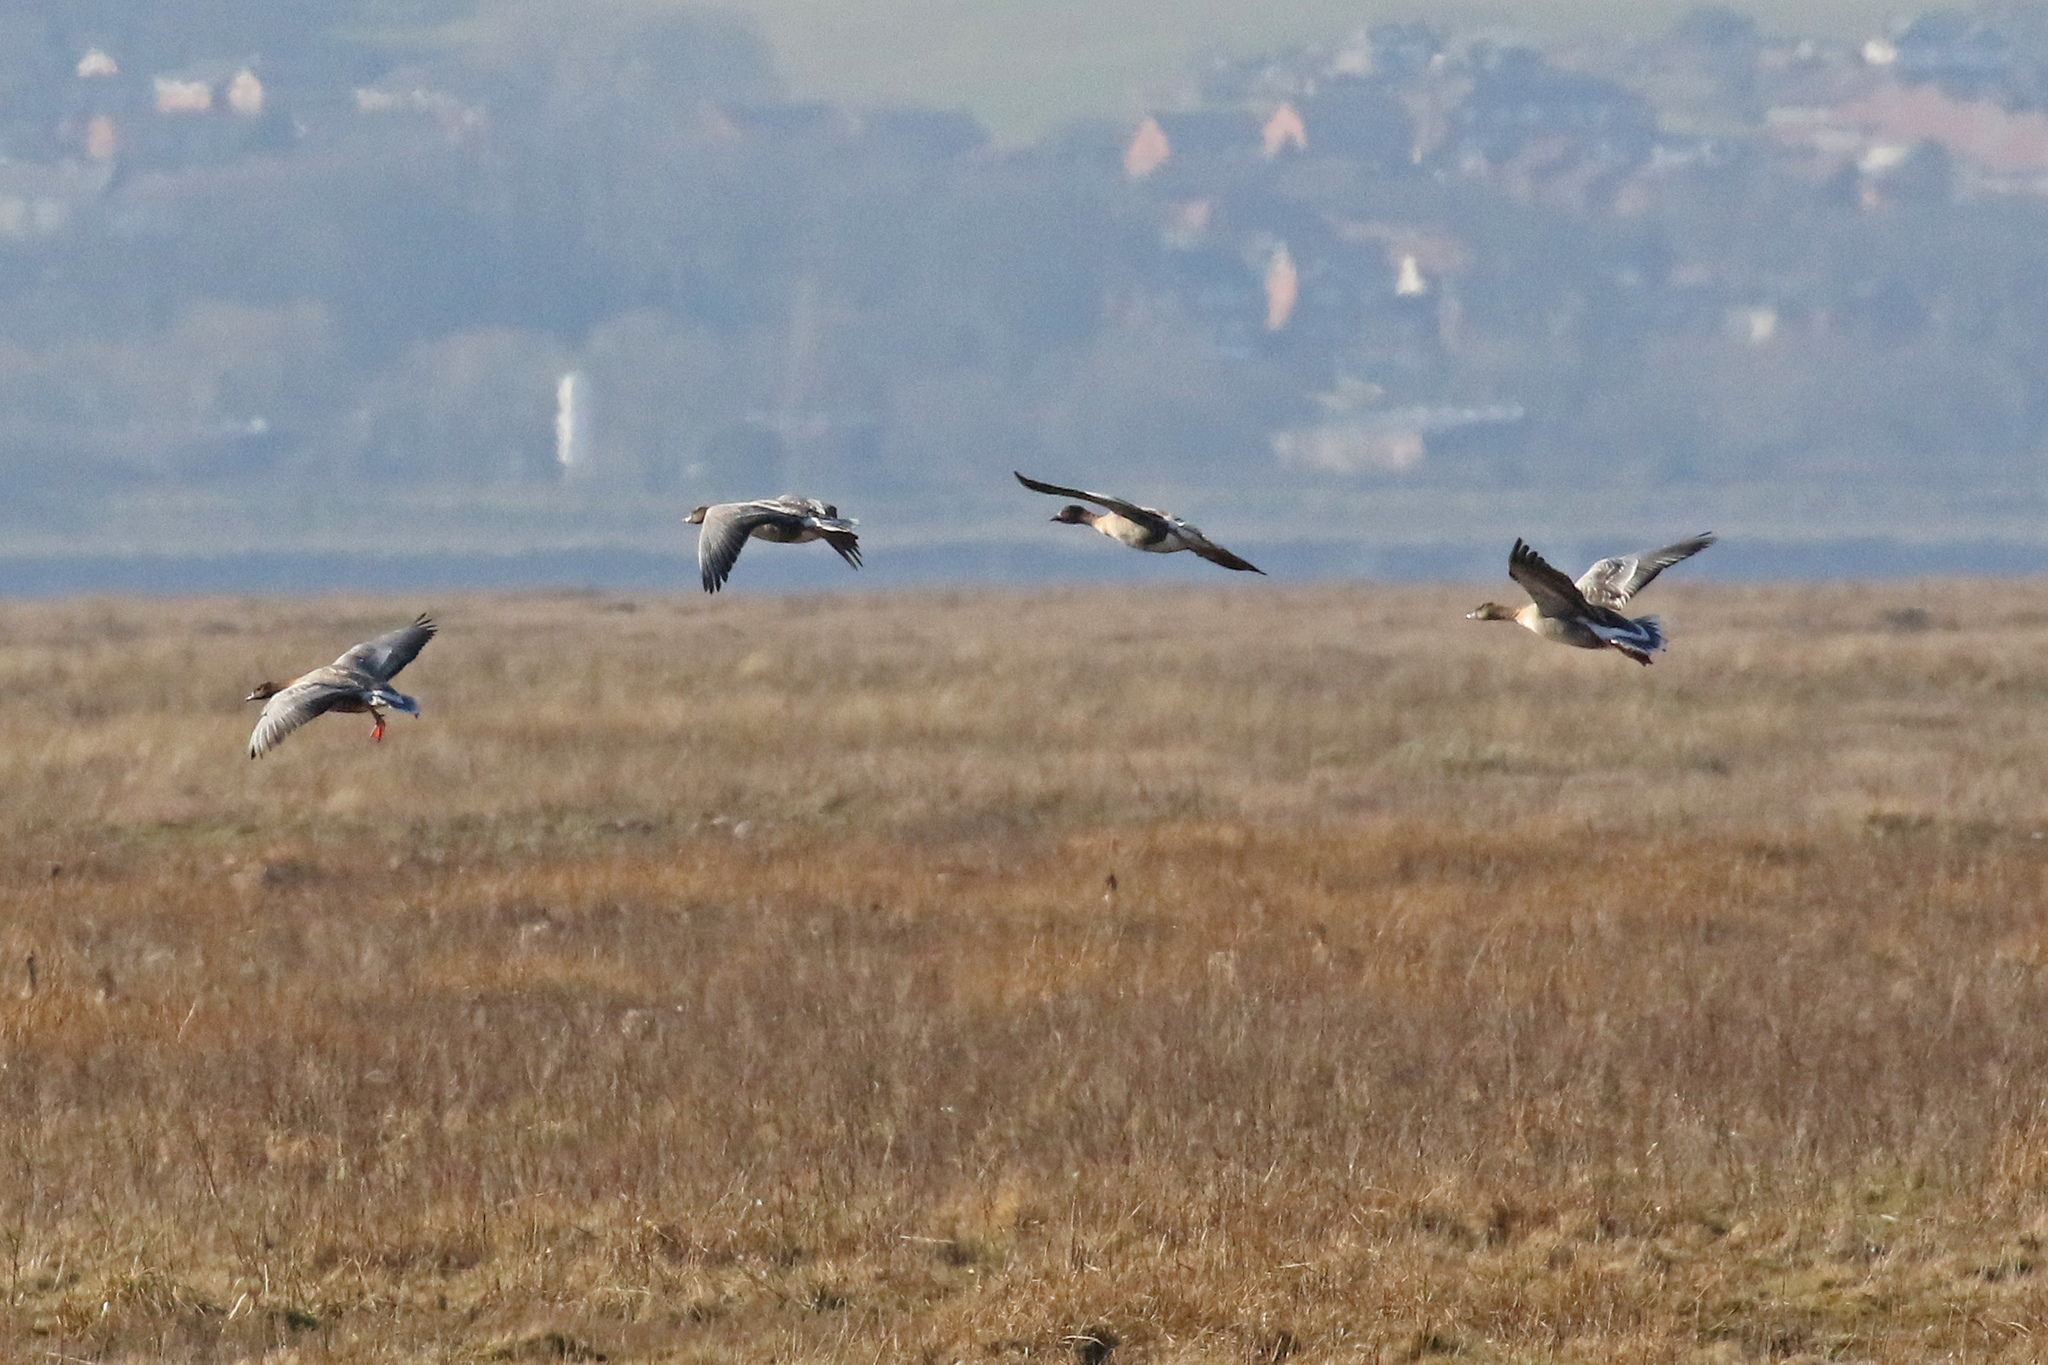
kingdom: Animalia
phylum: Chordata
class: Aves
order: Anseriformes
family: Anatidae
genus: Anser
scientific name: Anser brachyrhynchus
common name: Pink-footed goose
